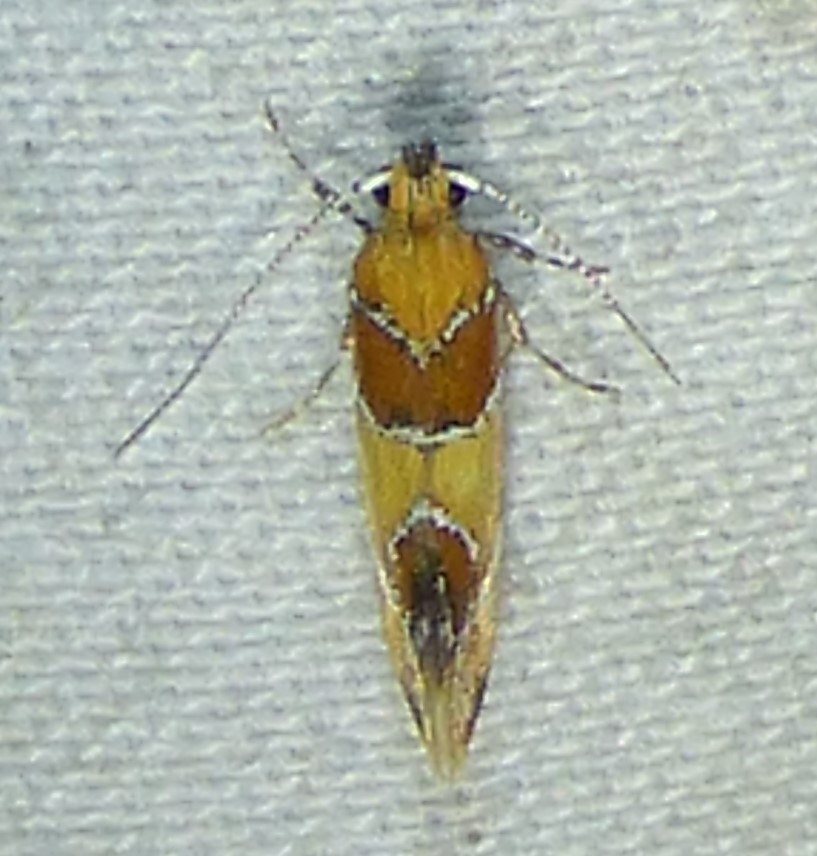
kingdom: Animalia
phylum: Arthropoda
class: Insecta
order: Lepidoptera
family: Oecophoridae
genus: Callima
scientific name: Callima argenticinctella
